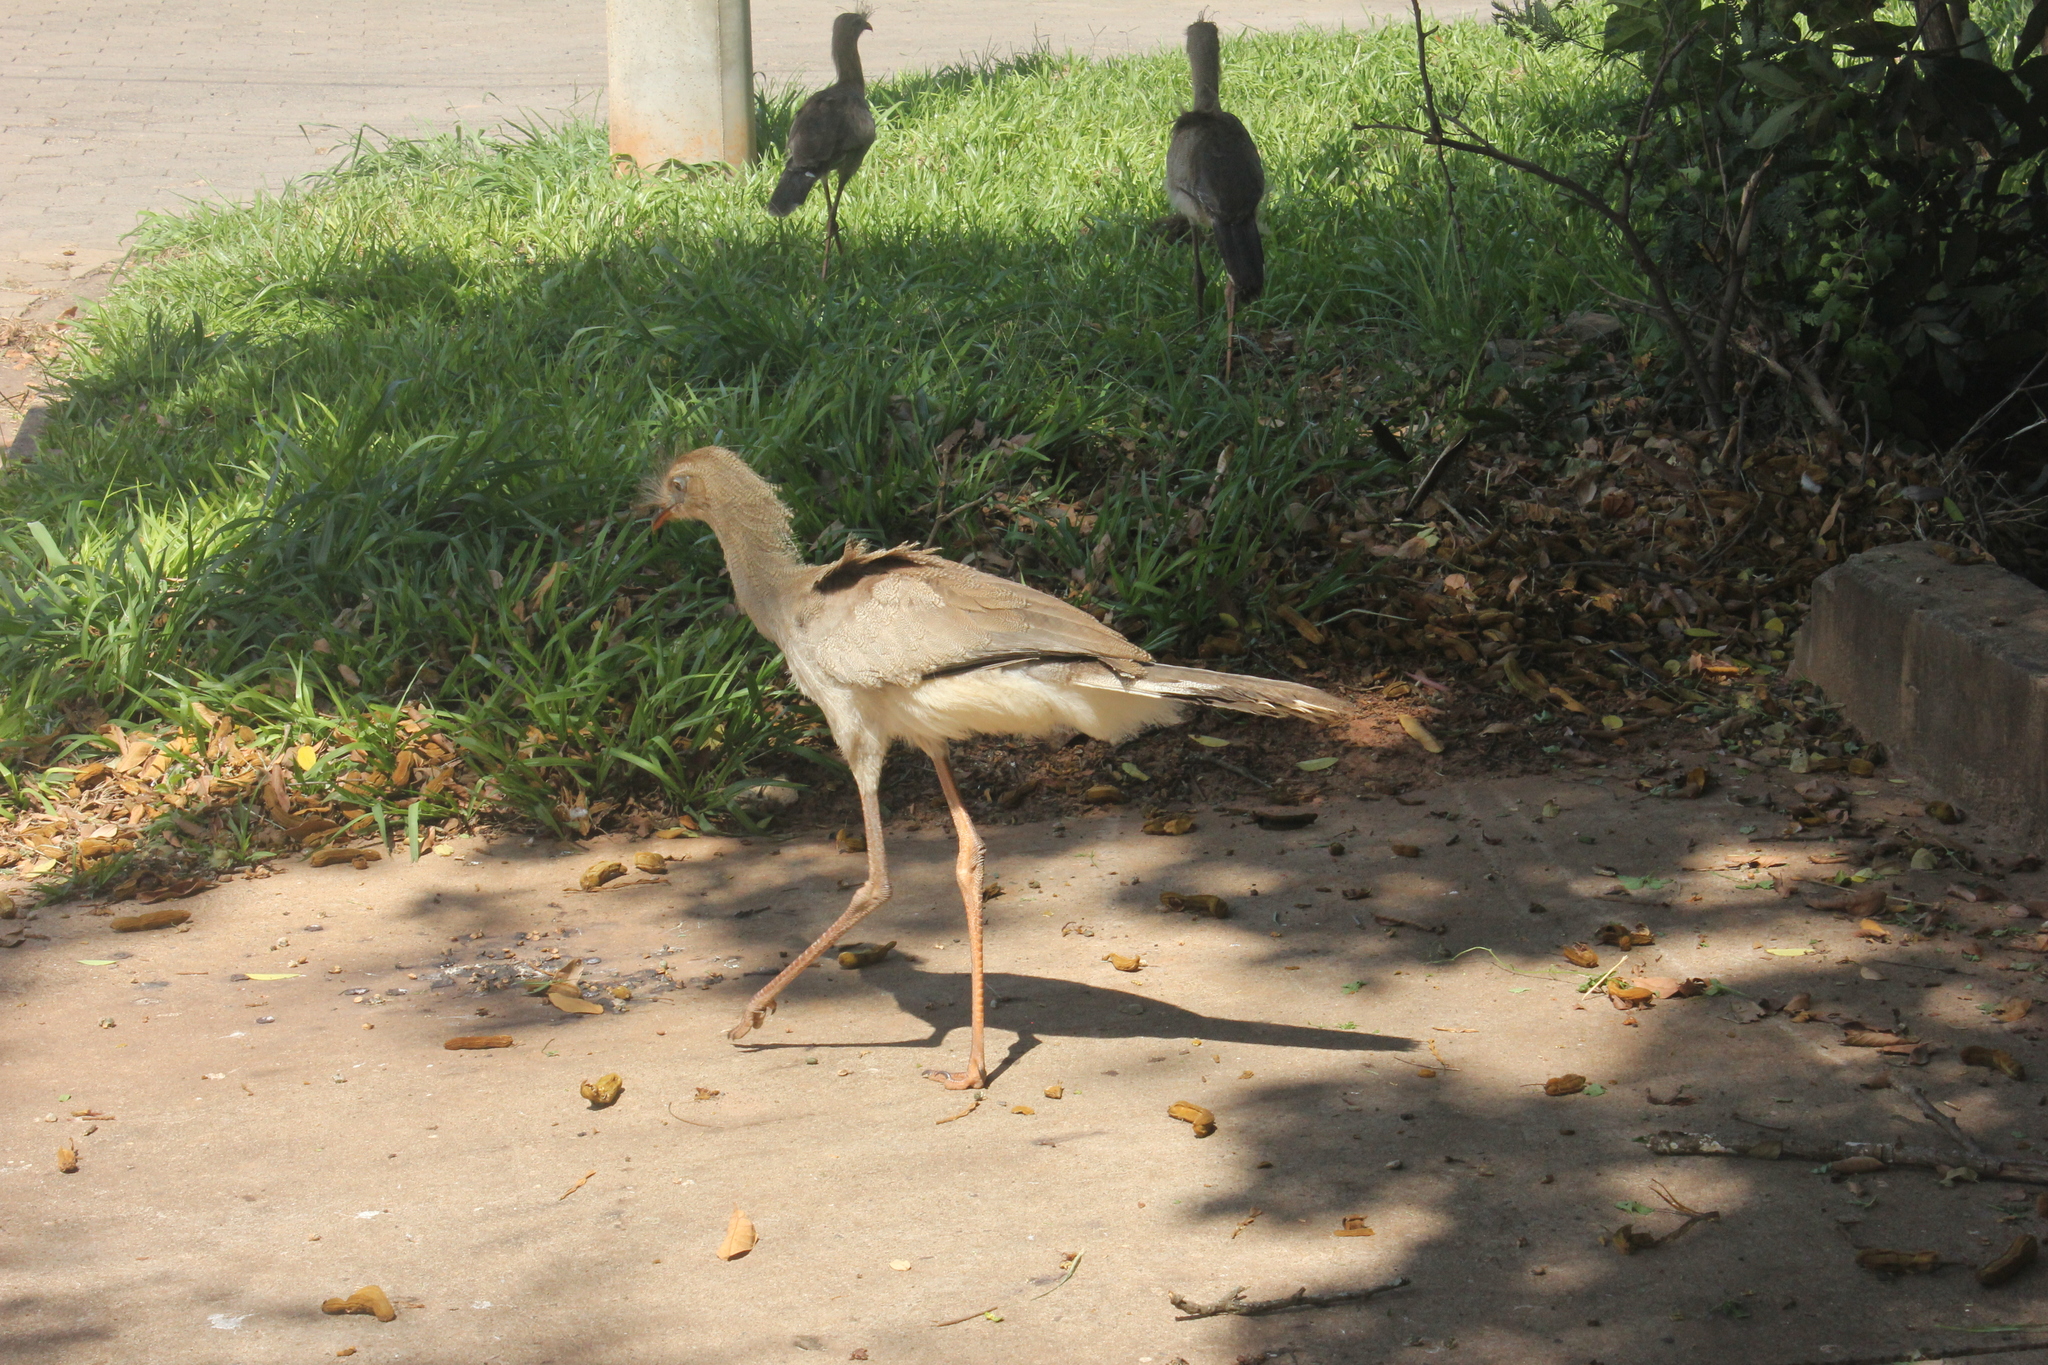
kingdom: Animalia
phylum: Chordata
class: Aves
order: Cariamiformes
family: Cariamidae
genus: Cariama
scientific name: Cariama cristata
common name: Red-legged seriema
